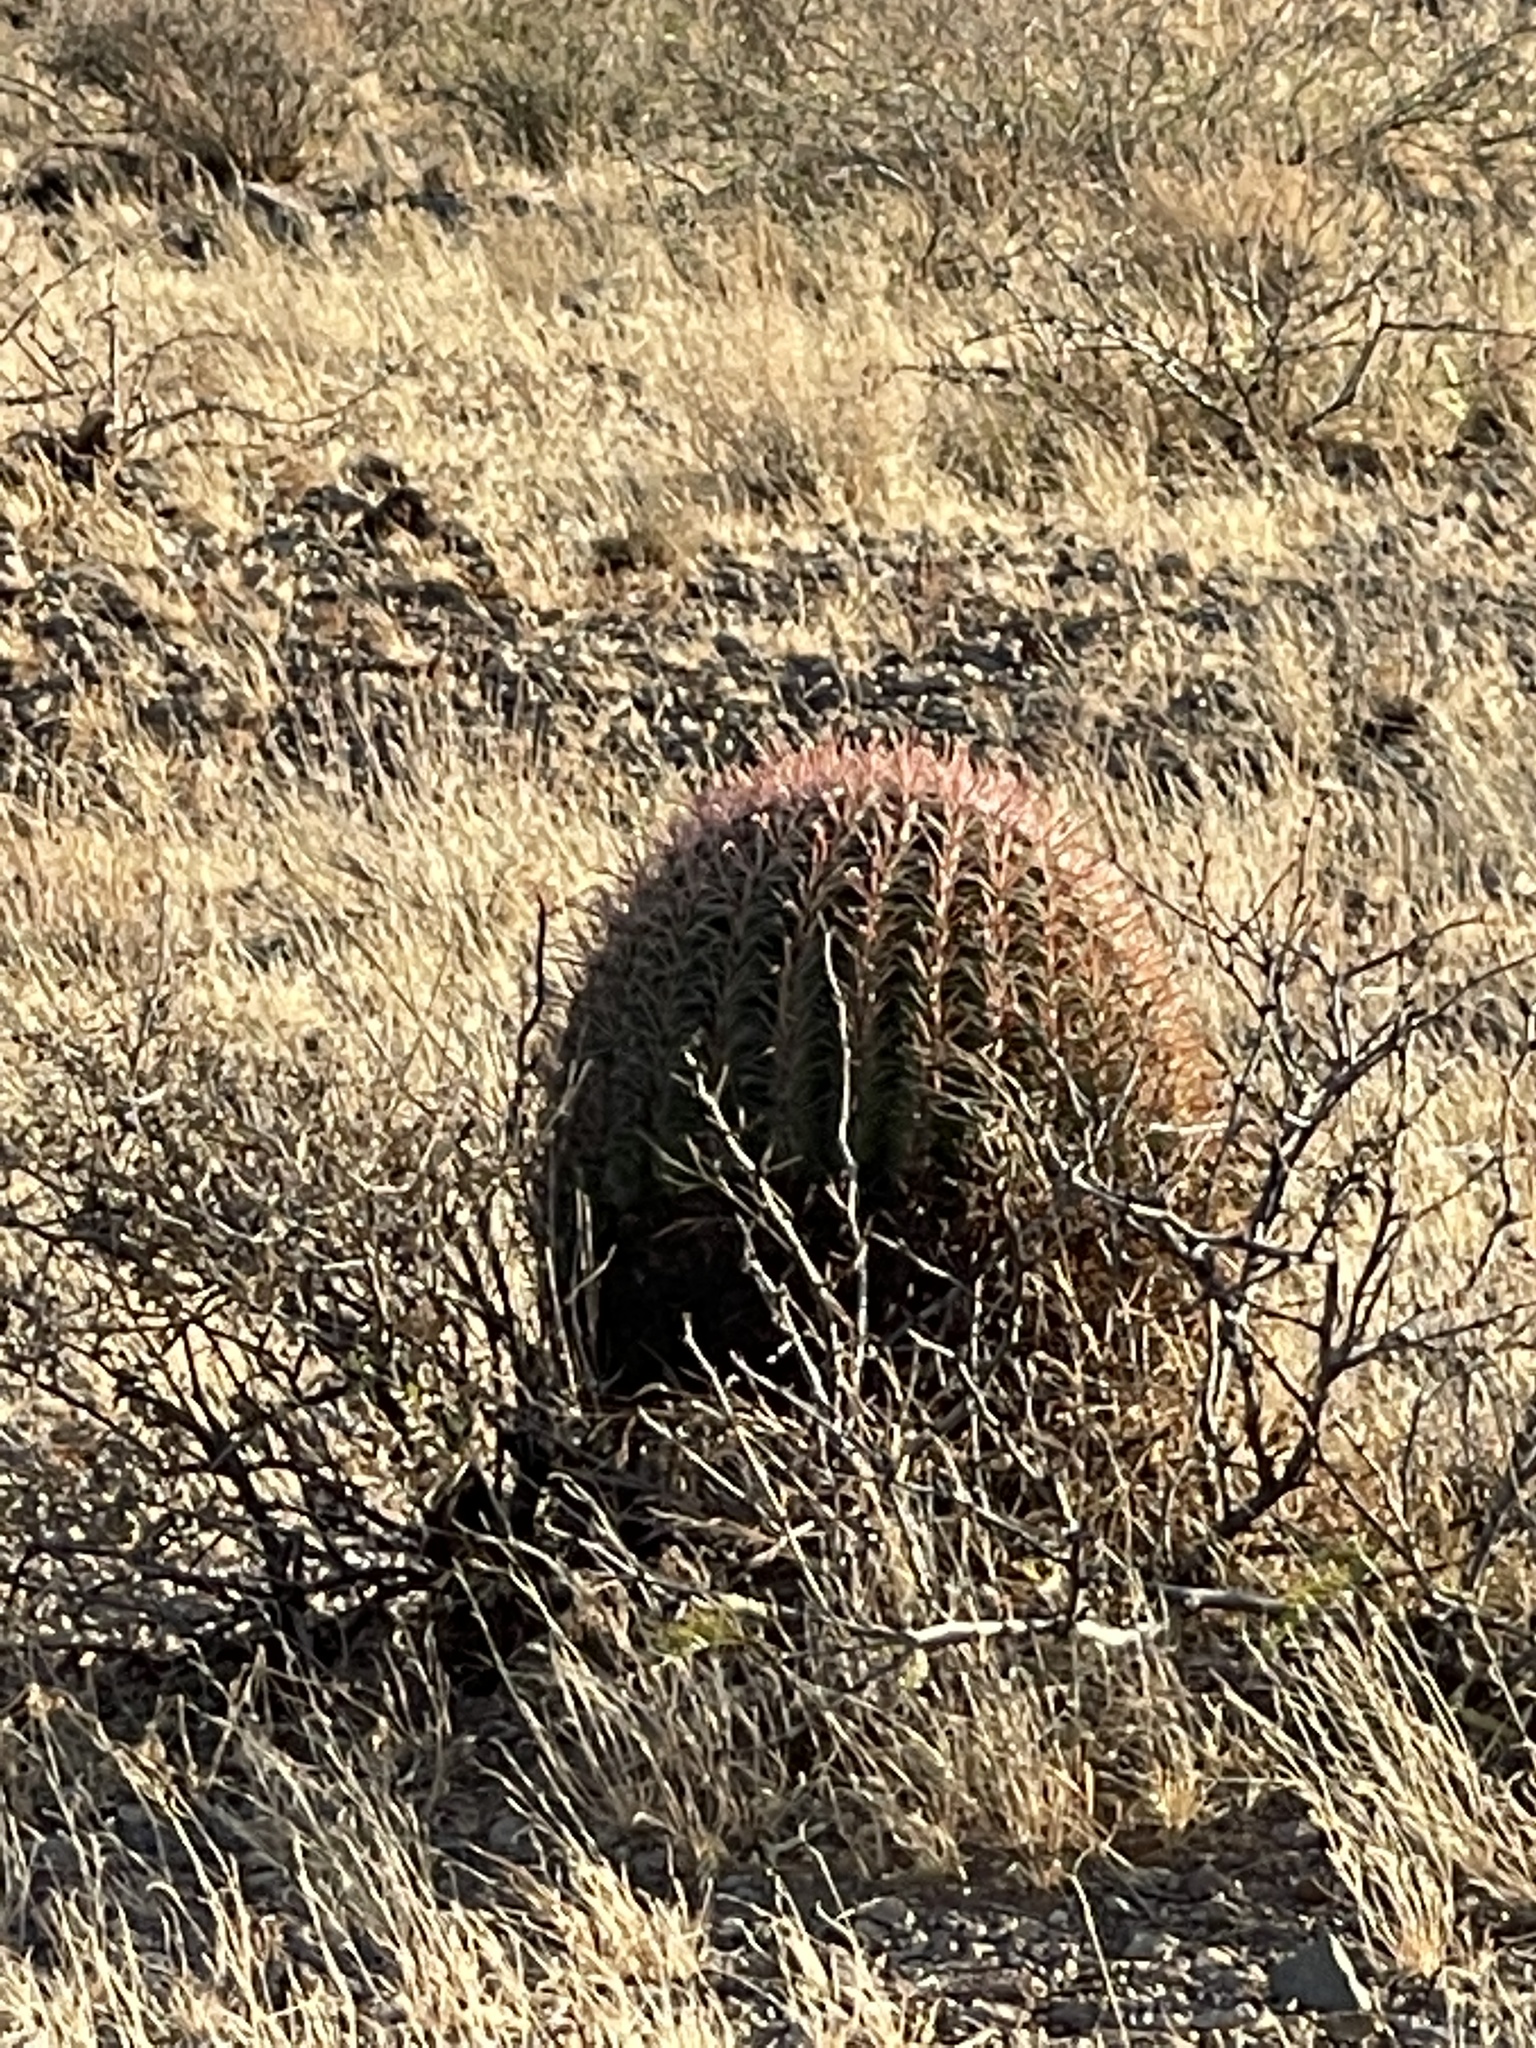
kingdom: Plantae
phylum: Tracheophyta
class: Magnoliopsida
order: Caryophyllales
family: Cactaceae
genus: Ferocactus
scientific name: Ferocactus wislizeni
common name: Candy barrel cactus
